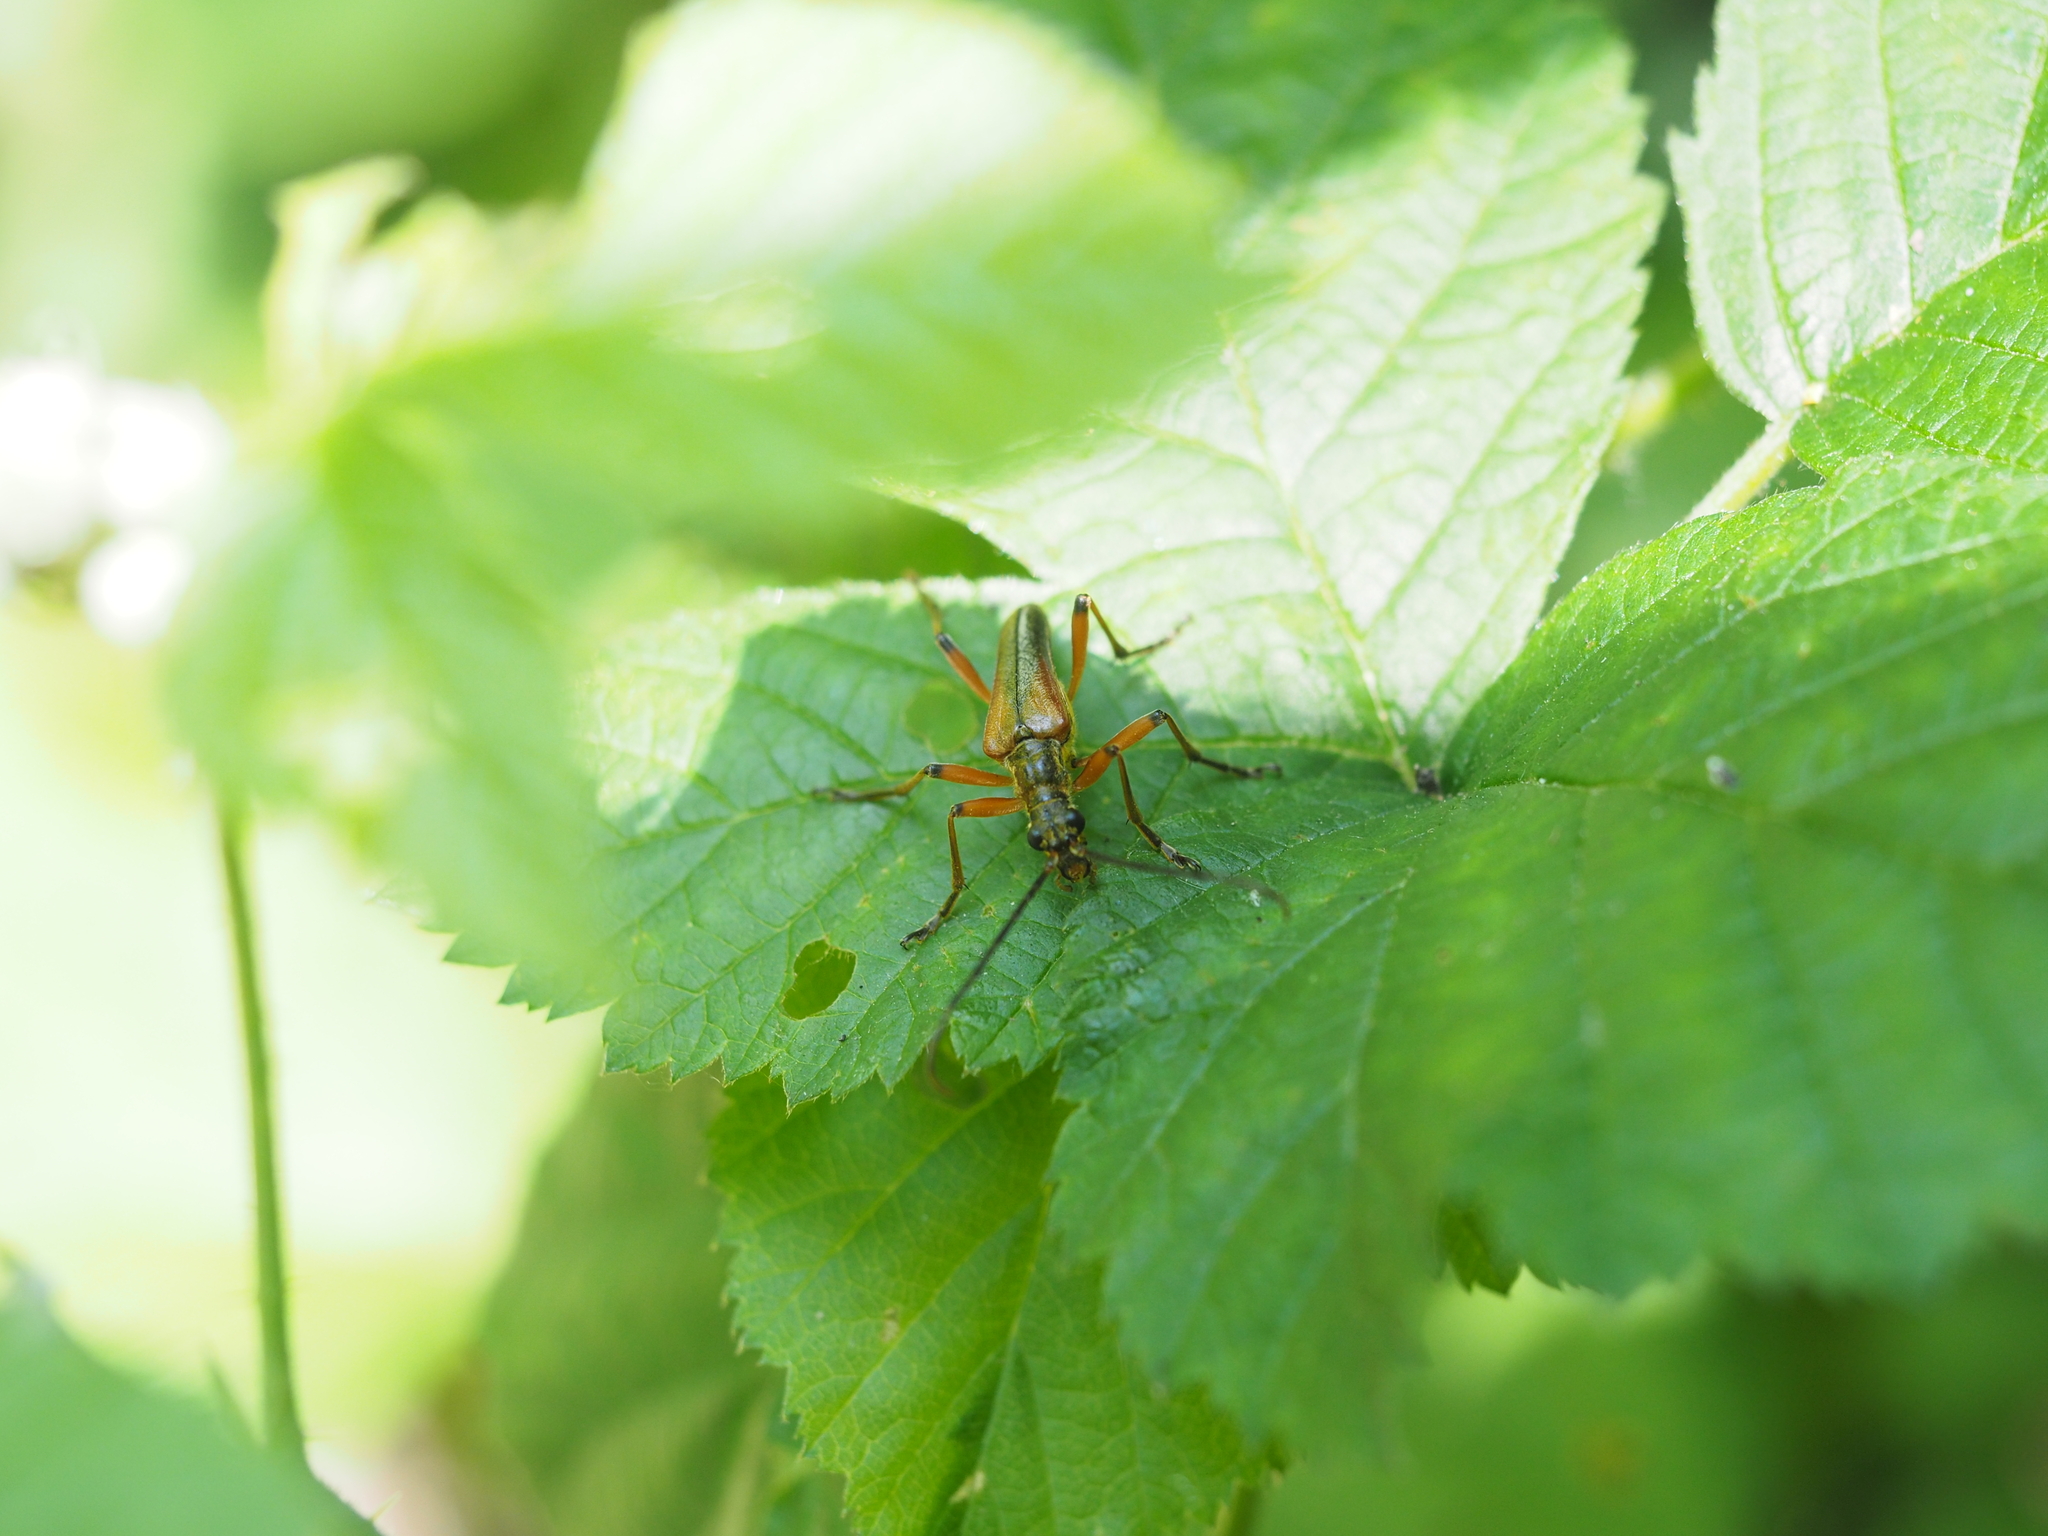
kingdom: Animalia
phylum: Arthropoda
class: Insecta
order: Coleoptera
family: Cerambycidae
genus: Stenocorus
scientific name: Stenocorus meridianus
